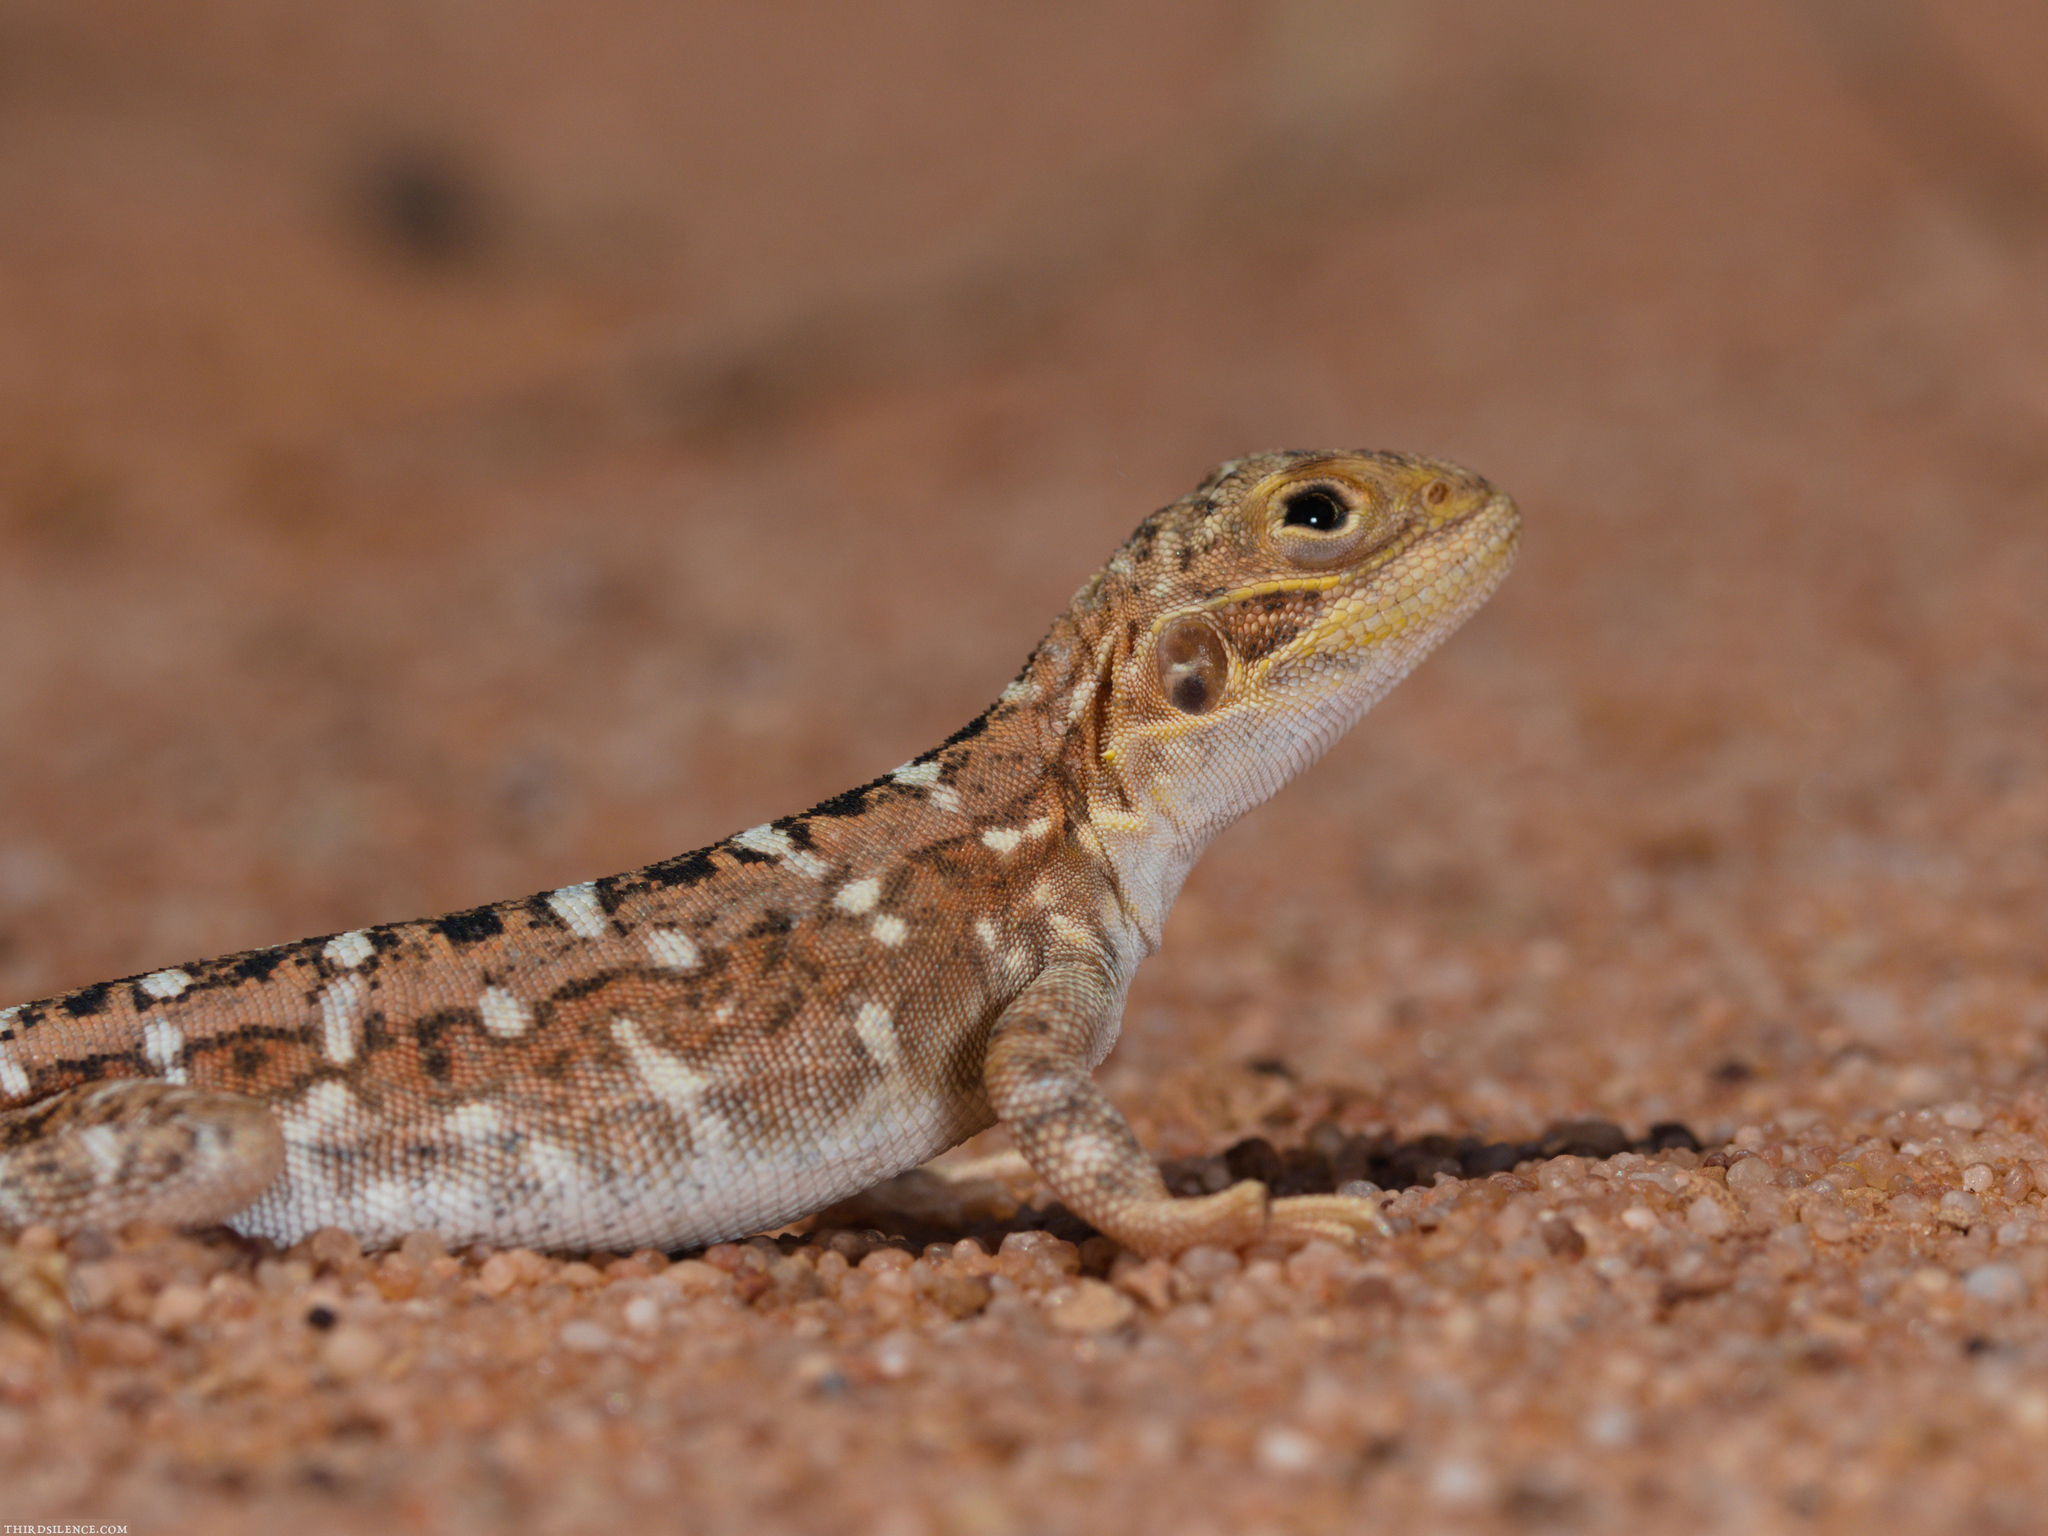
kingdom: Animalia
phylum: Chordata
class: Squamata
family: Agamidae
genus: Ctenophorus
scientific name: Ctenophorus pictus
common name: Painted dragon
